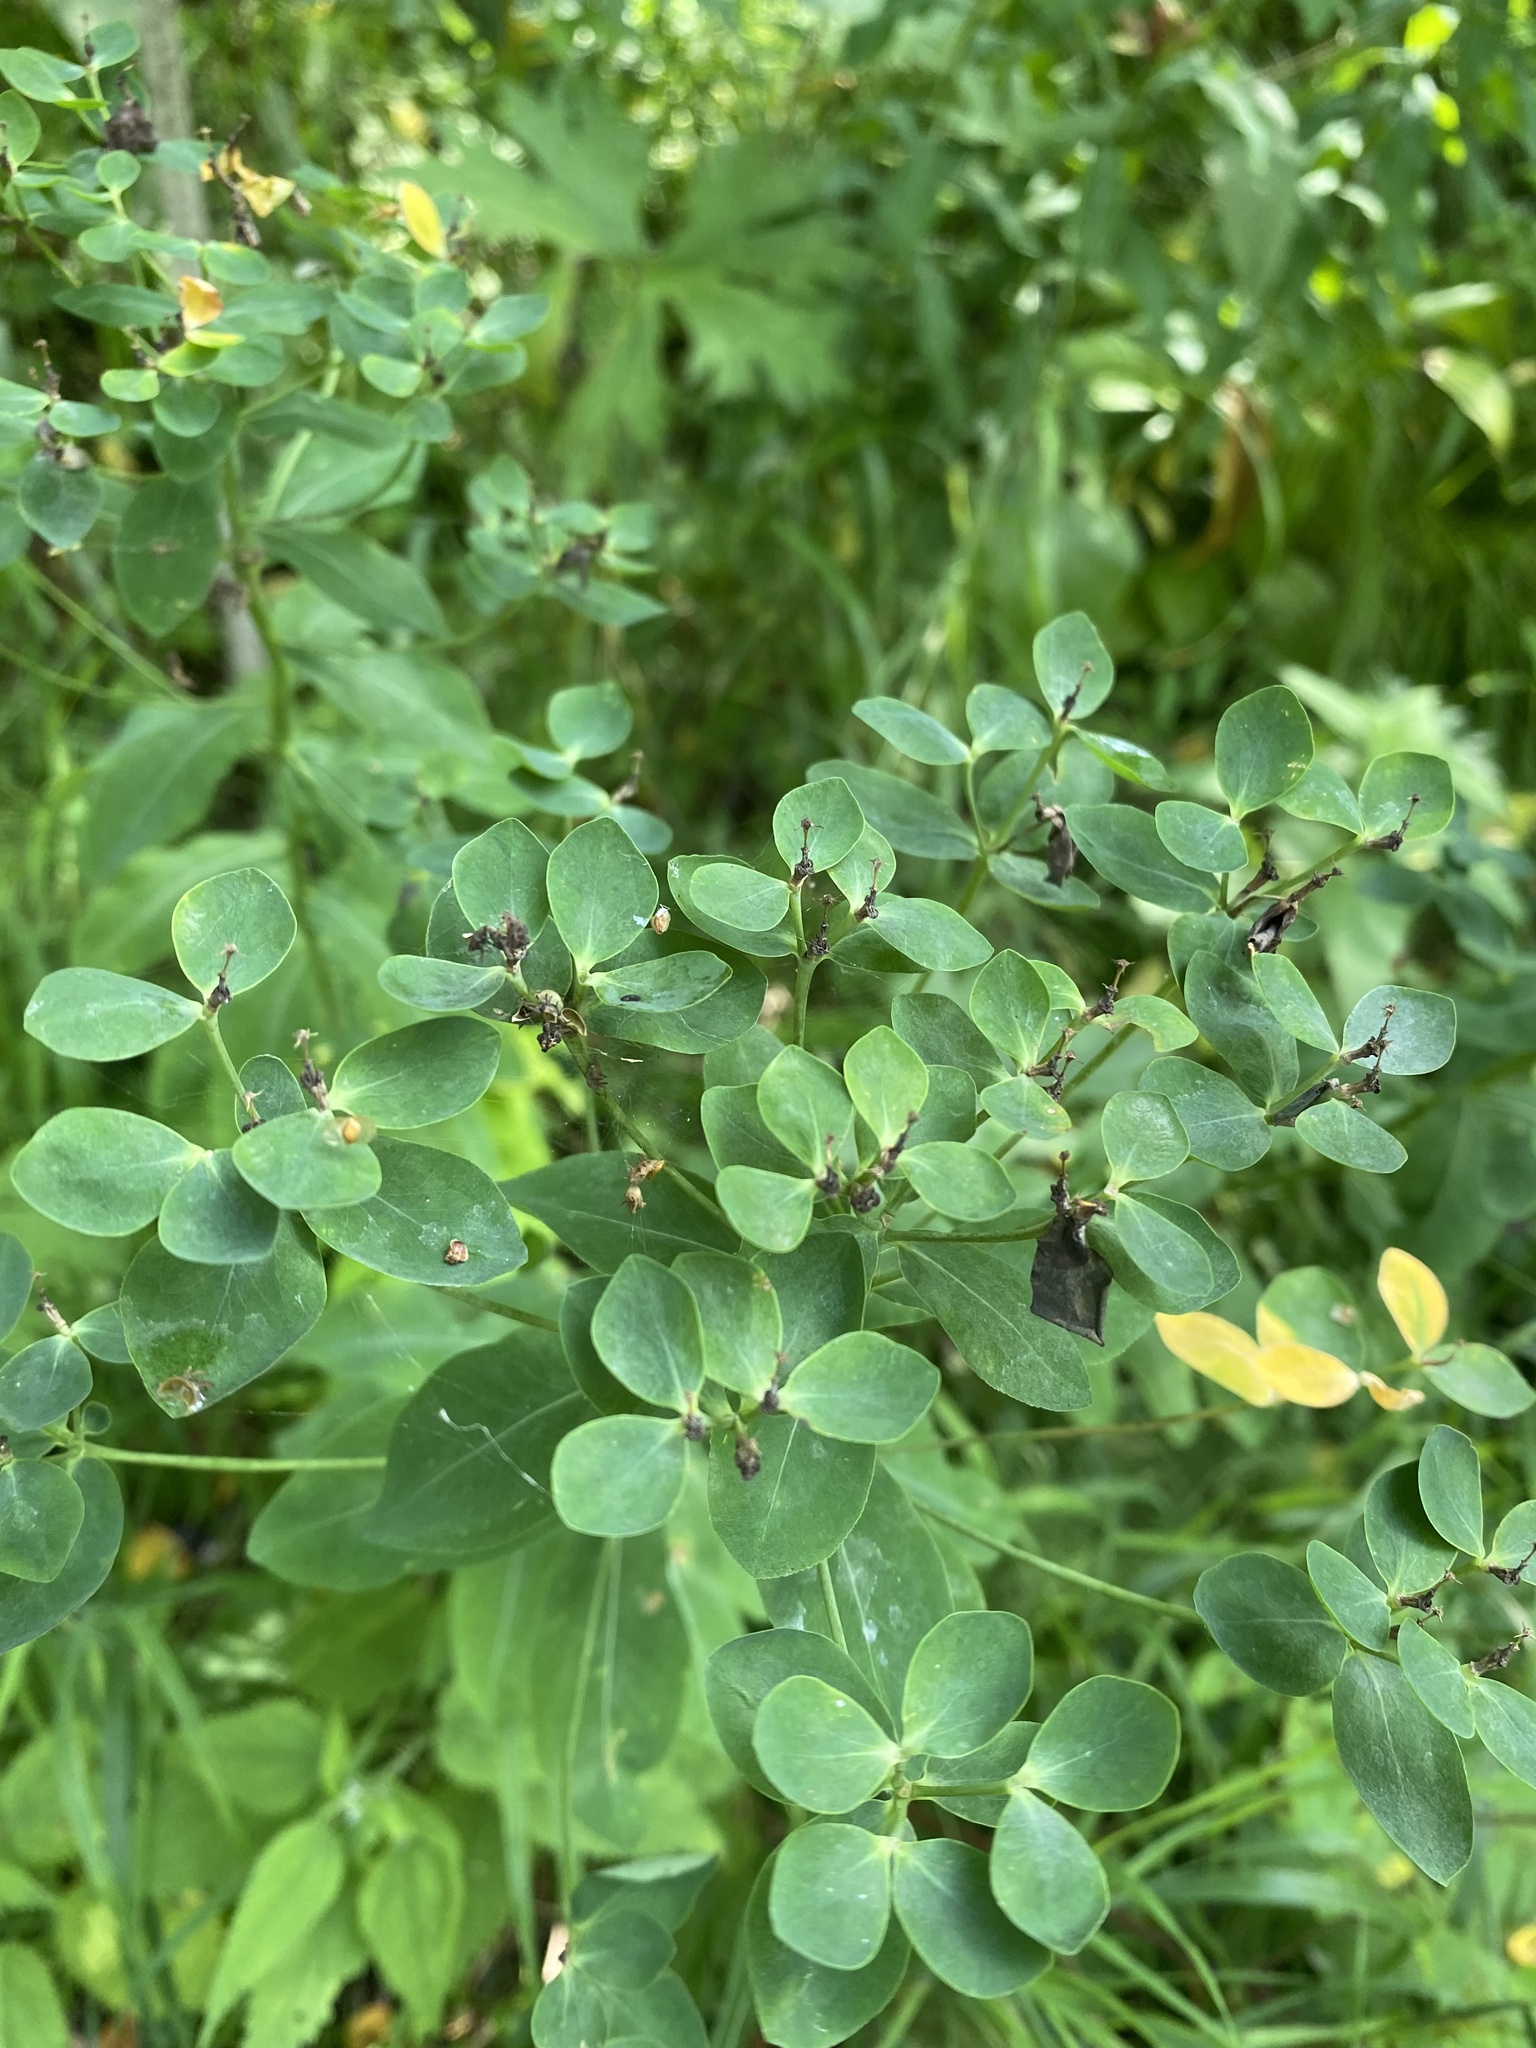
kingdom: Plantae
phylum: Tracheophyta
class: Magnoliopsida
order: Malpighiales
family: Euphorbiaceae
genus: Euphorbia
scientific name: Euphorbia pilosa
